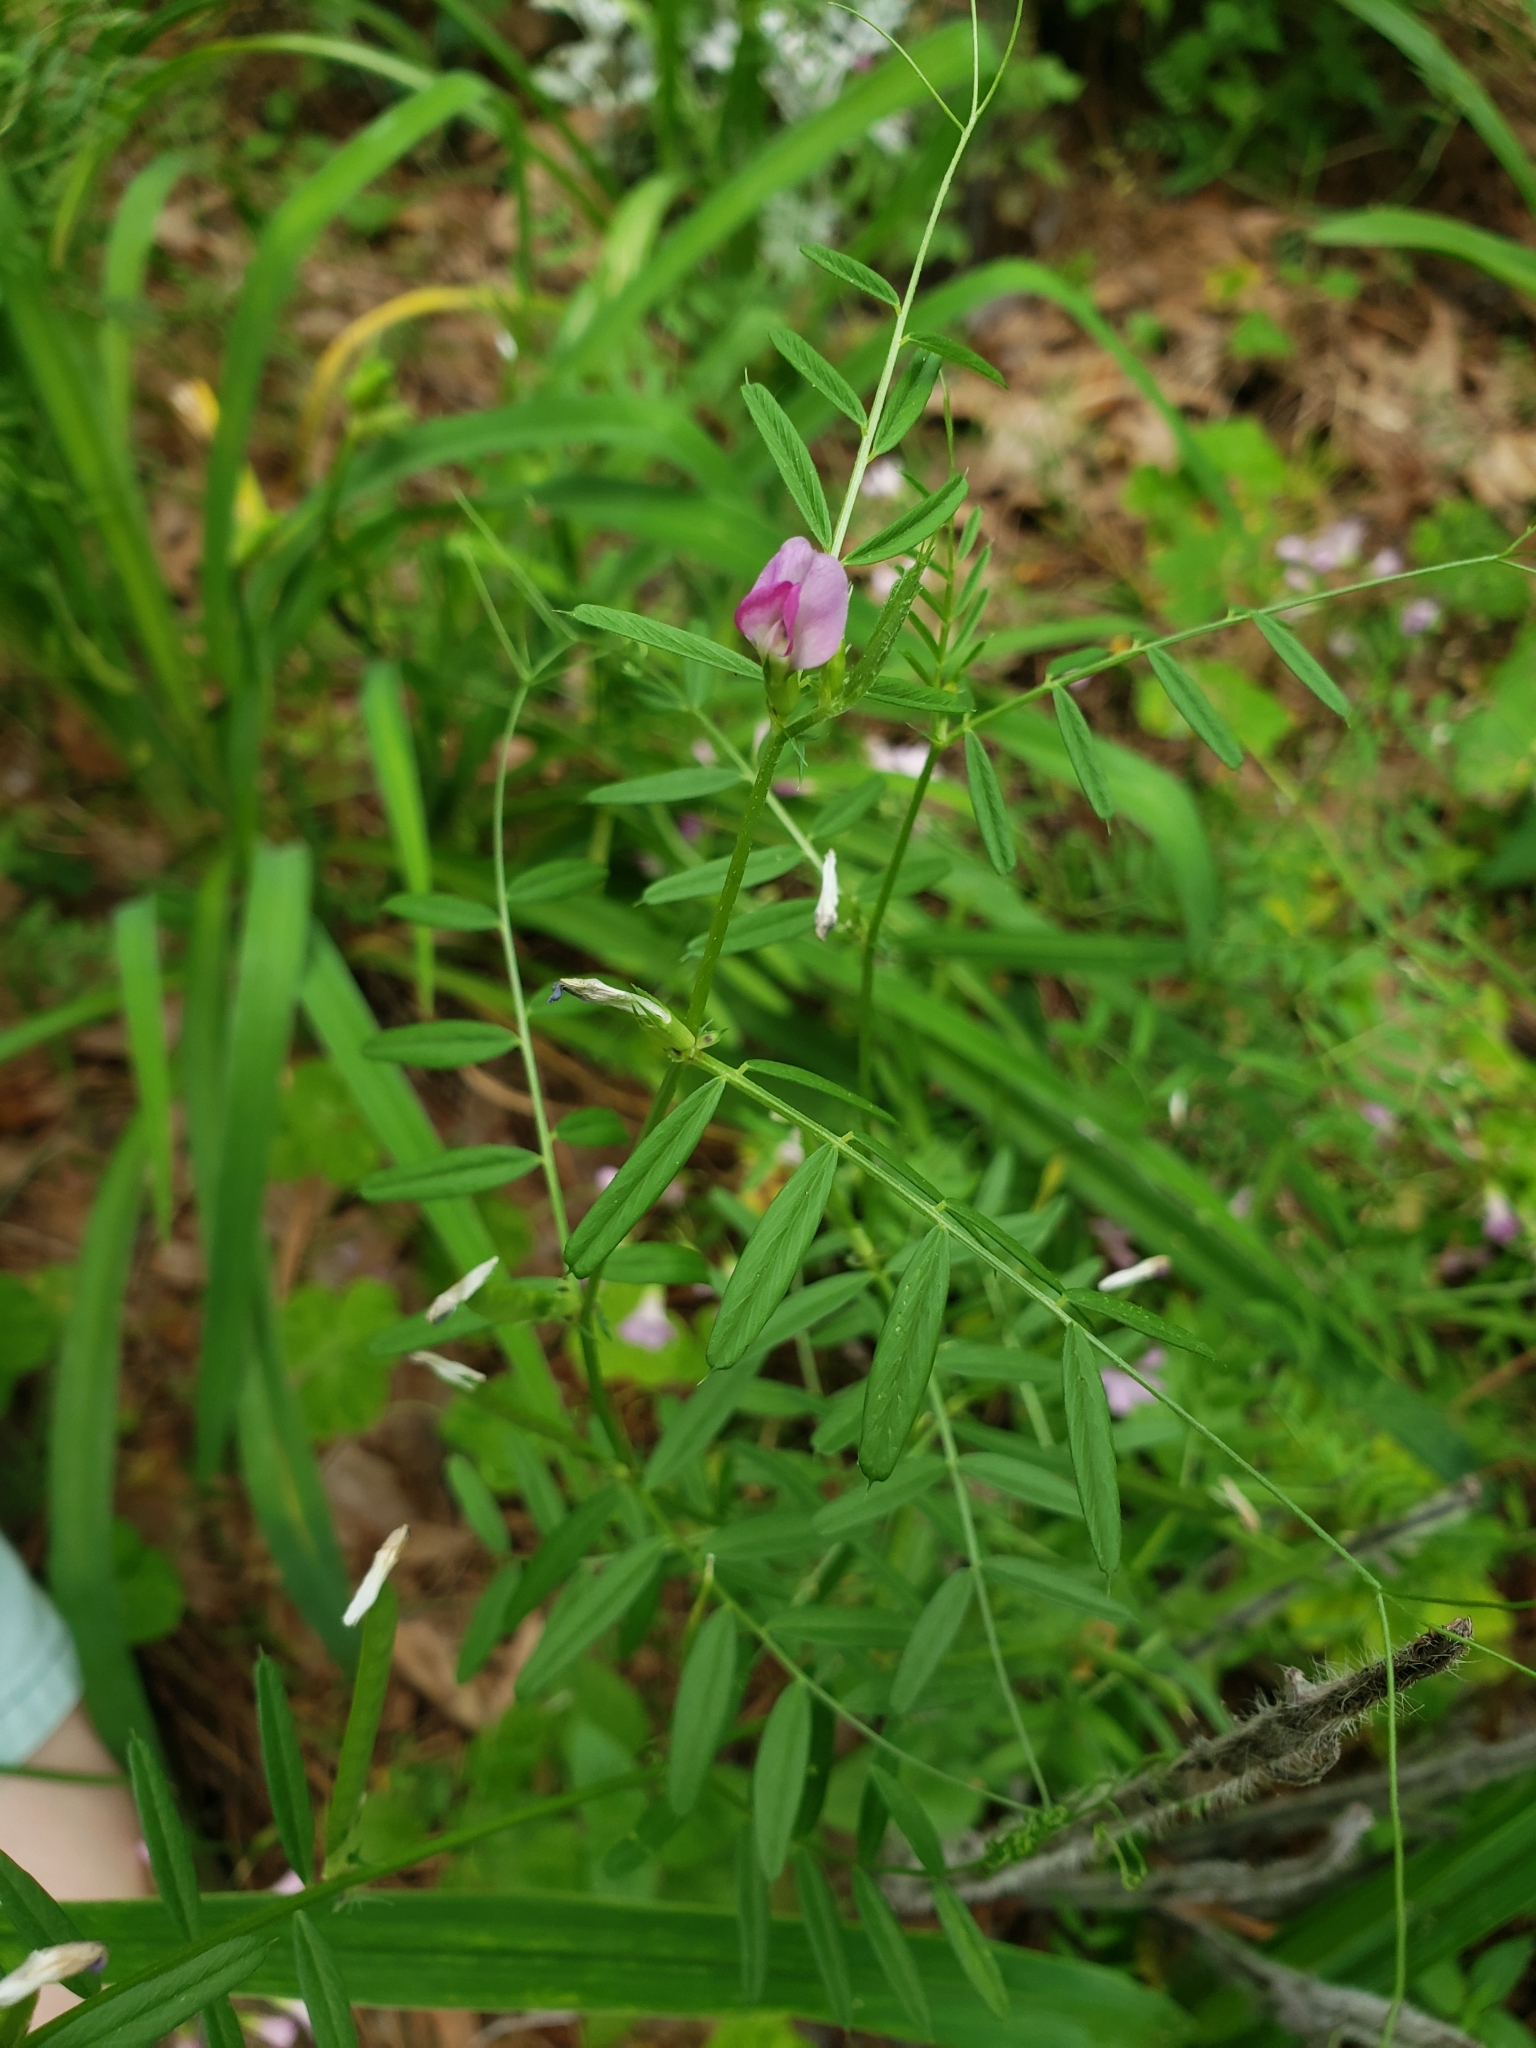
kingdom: Plantae
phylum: Tracheophyta
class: Magnoliopsida
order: Fabales
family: Fabaceae
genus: Vicia
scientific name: Vicia sativa
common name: Garden vetch
